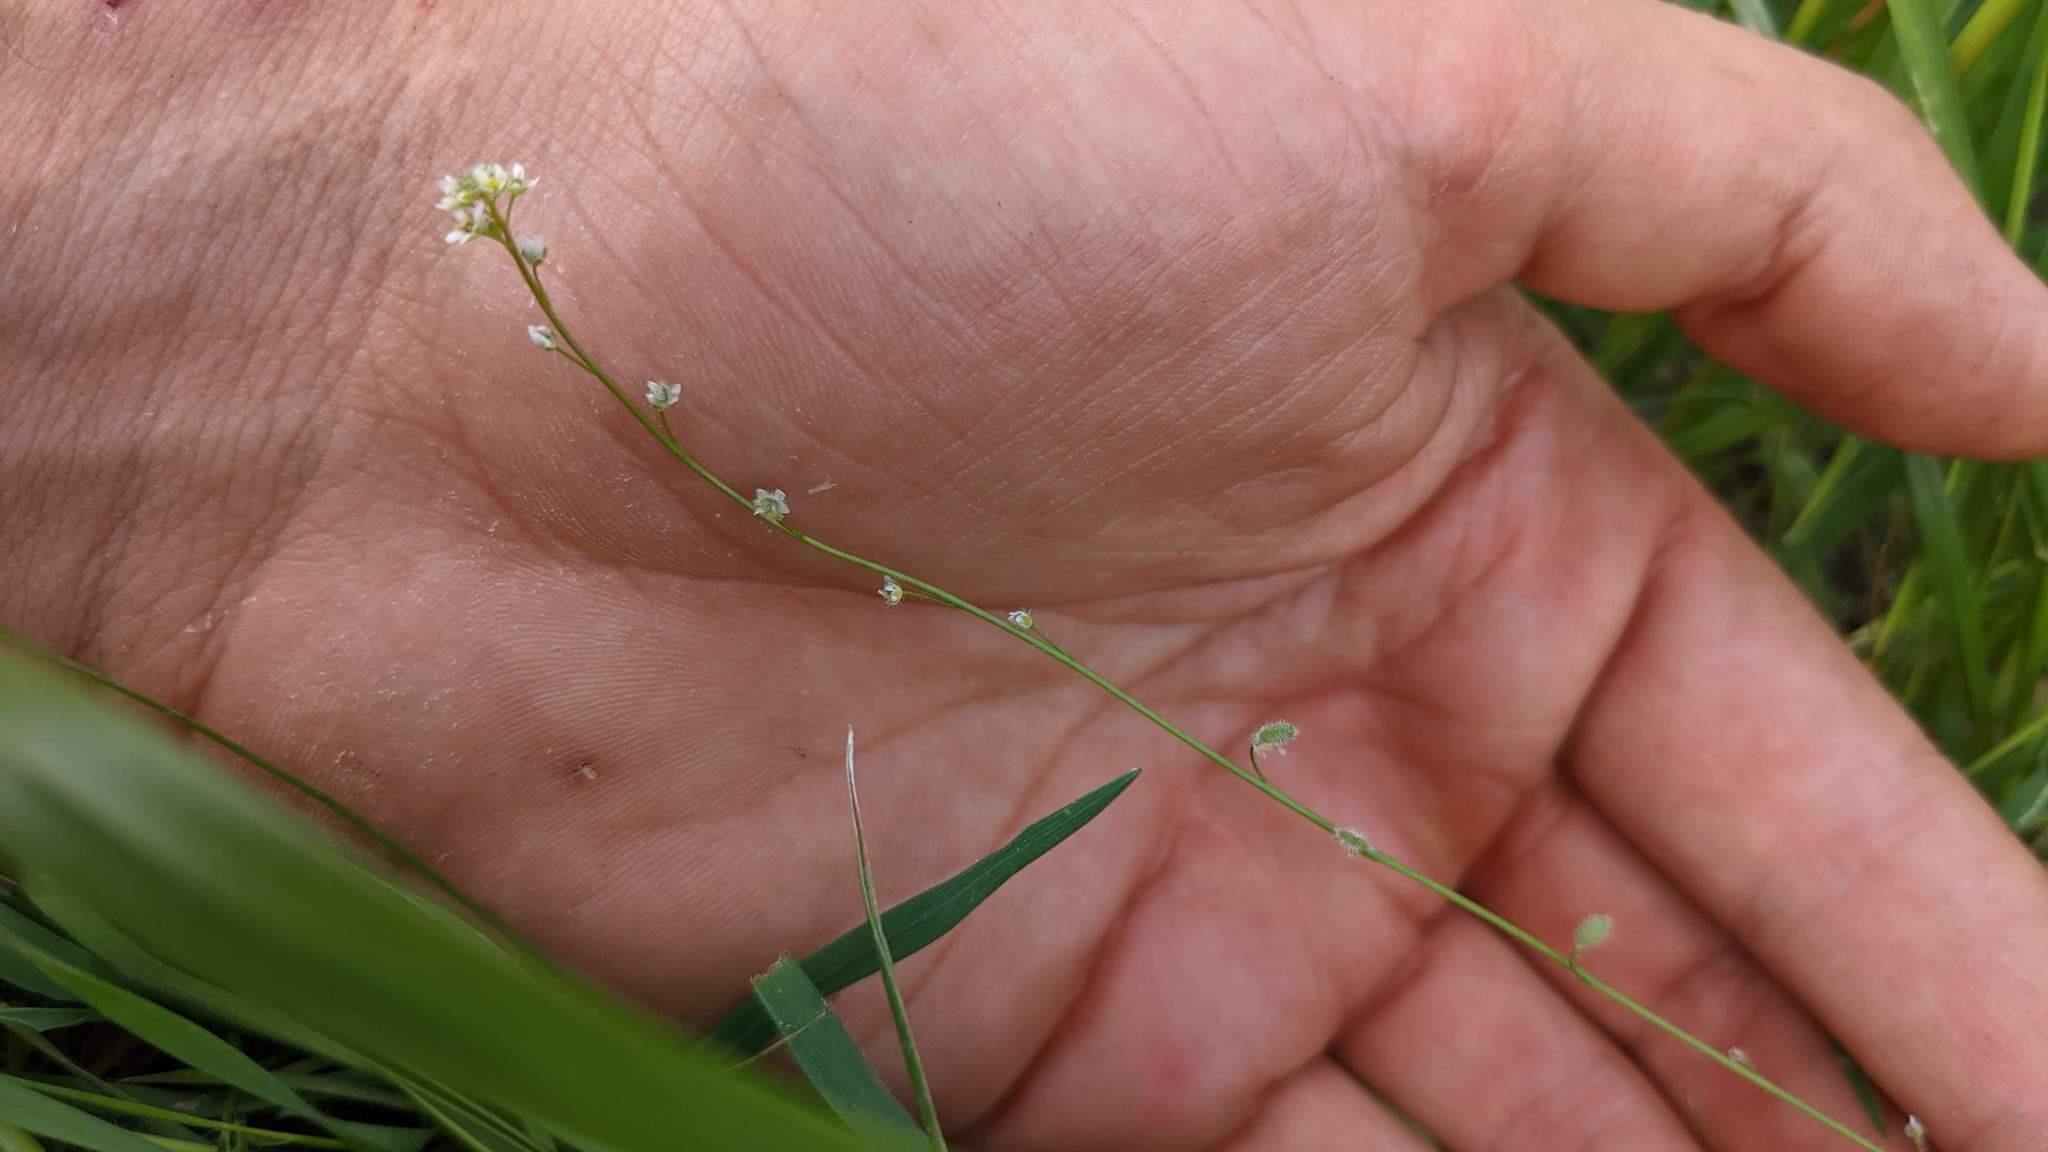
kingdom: Plantae
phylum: Tracheophyta
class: Magnoliopsida
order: Brassicales
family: Brassicaceae
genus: Athysanus
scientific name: Athysanus pusillus
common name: Common sandweed
